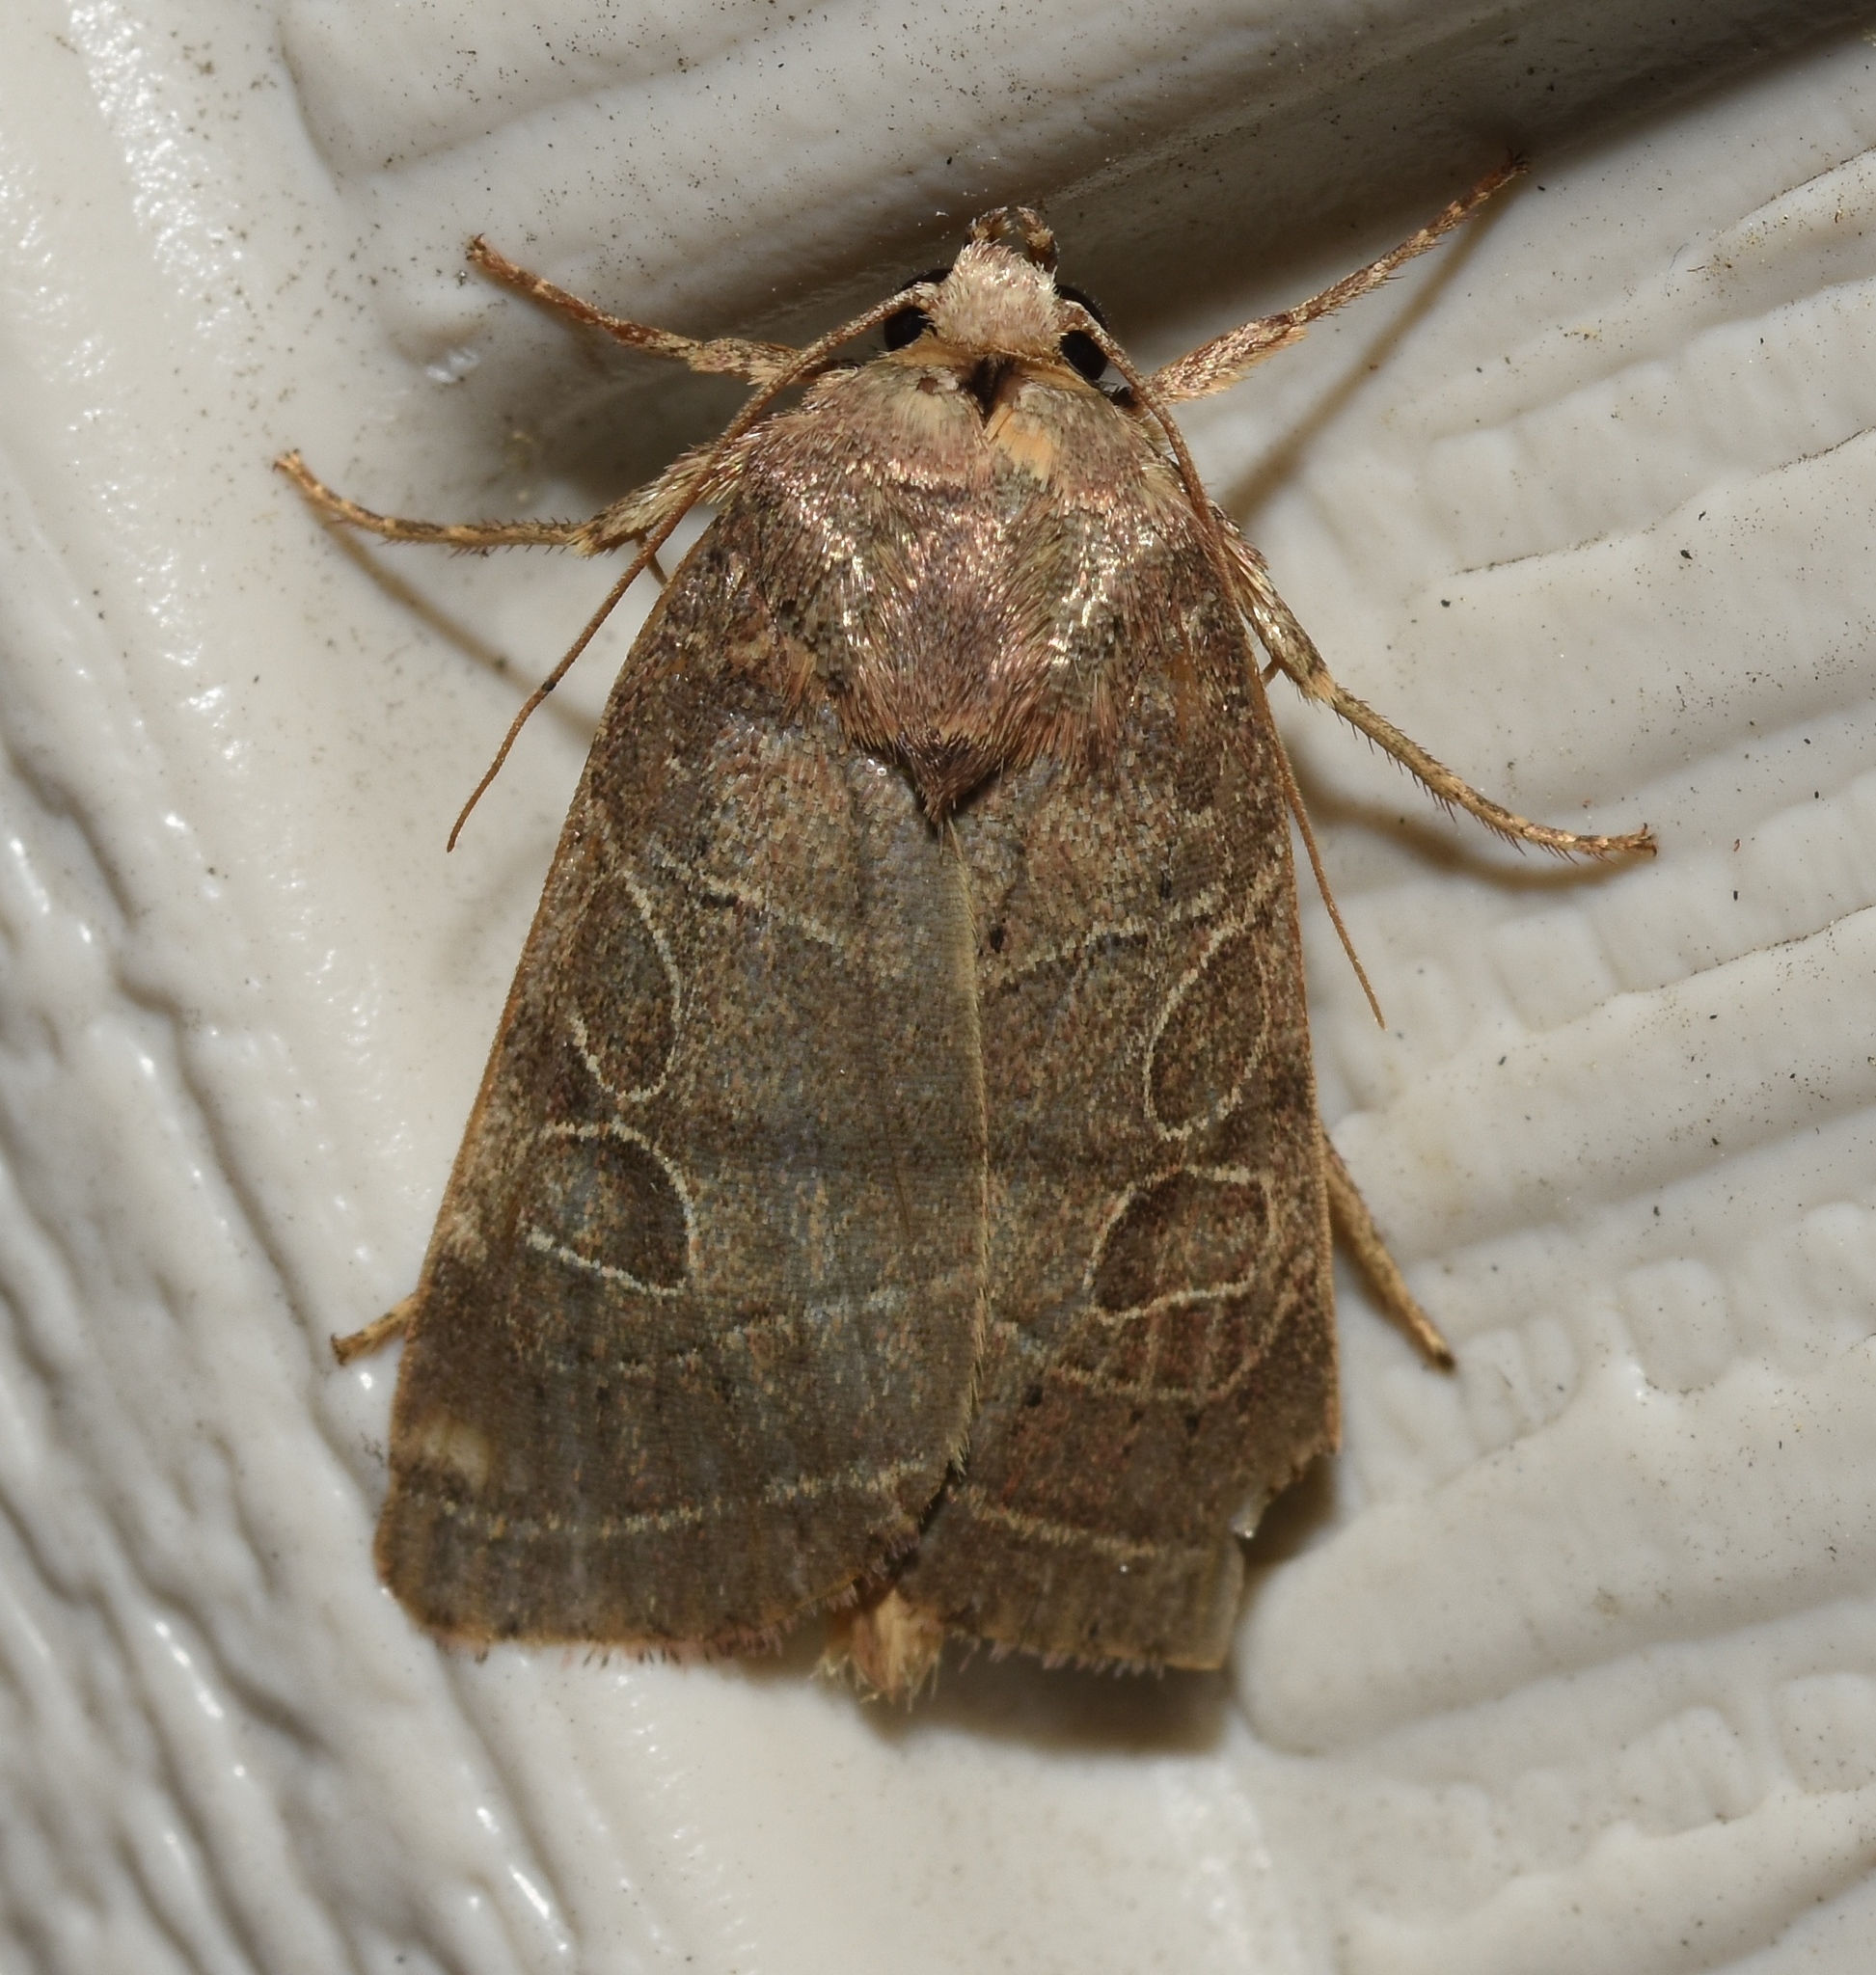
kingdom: Animalia
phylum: Arthropoda
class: Insecta
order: Lepidoptera
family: Noctuidae
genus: Orthodes
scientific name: Orthodes majuscula
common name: Rustic quaker
